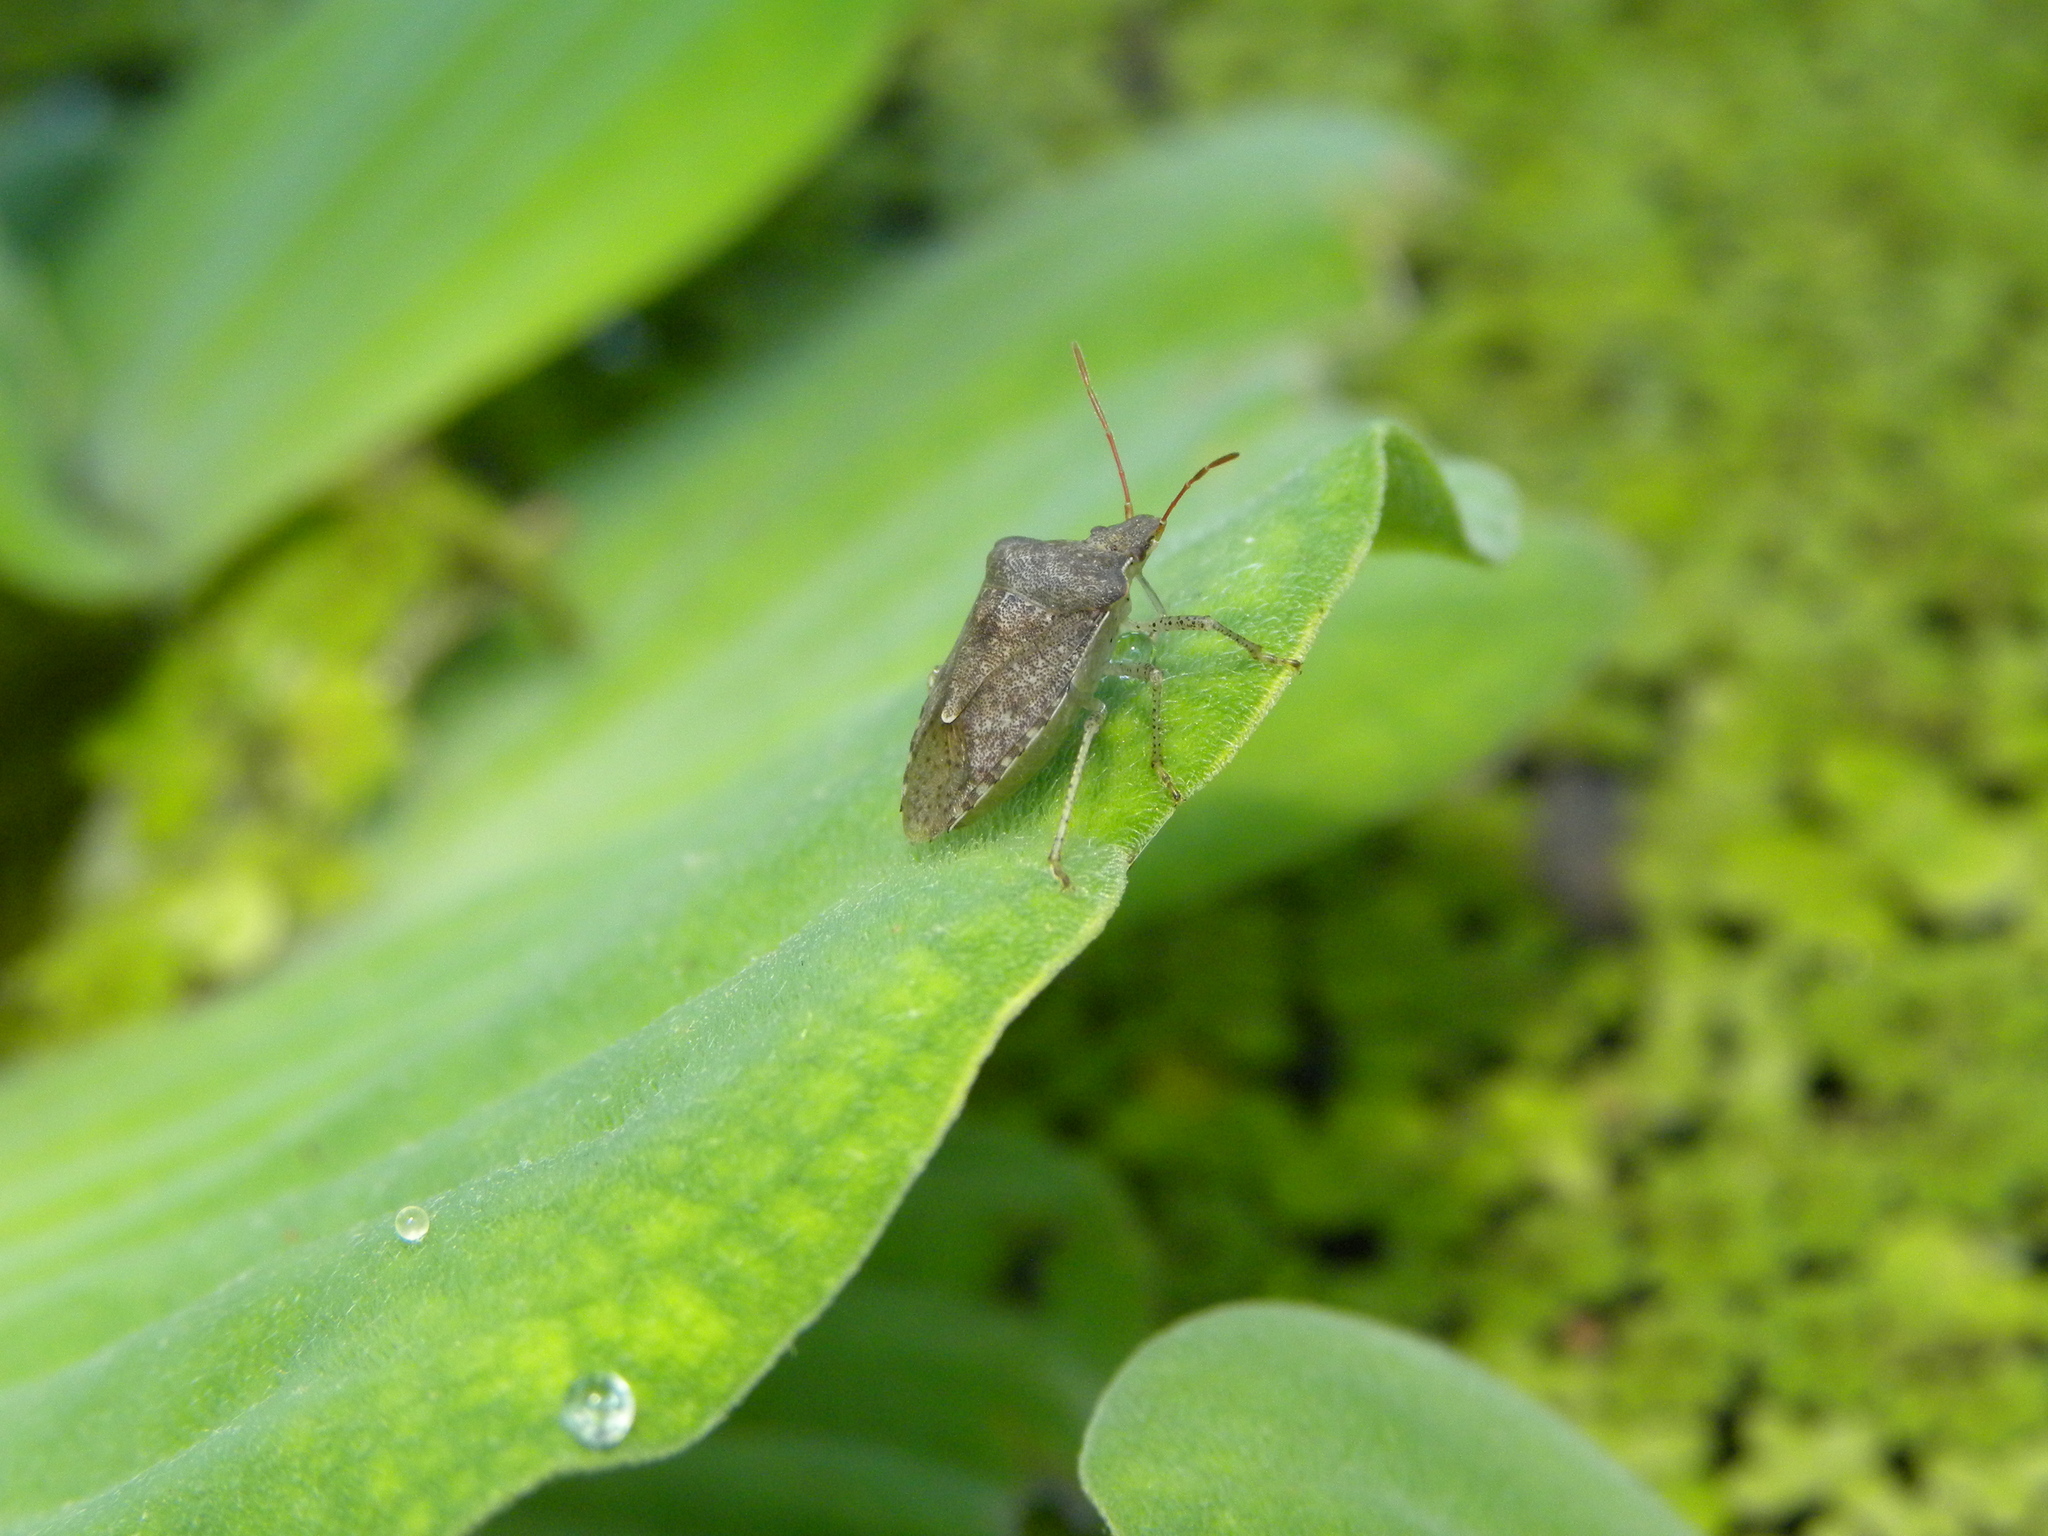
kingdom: Animalia
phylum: Arthropoda
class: Insecta
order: Hemiptera
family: Pentatomidae
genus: Euschistus
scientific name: Euschistus servus
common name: Brown stink bug
